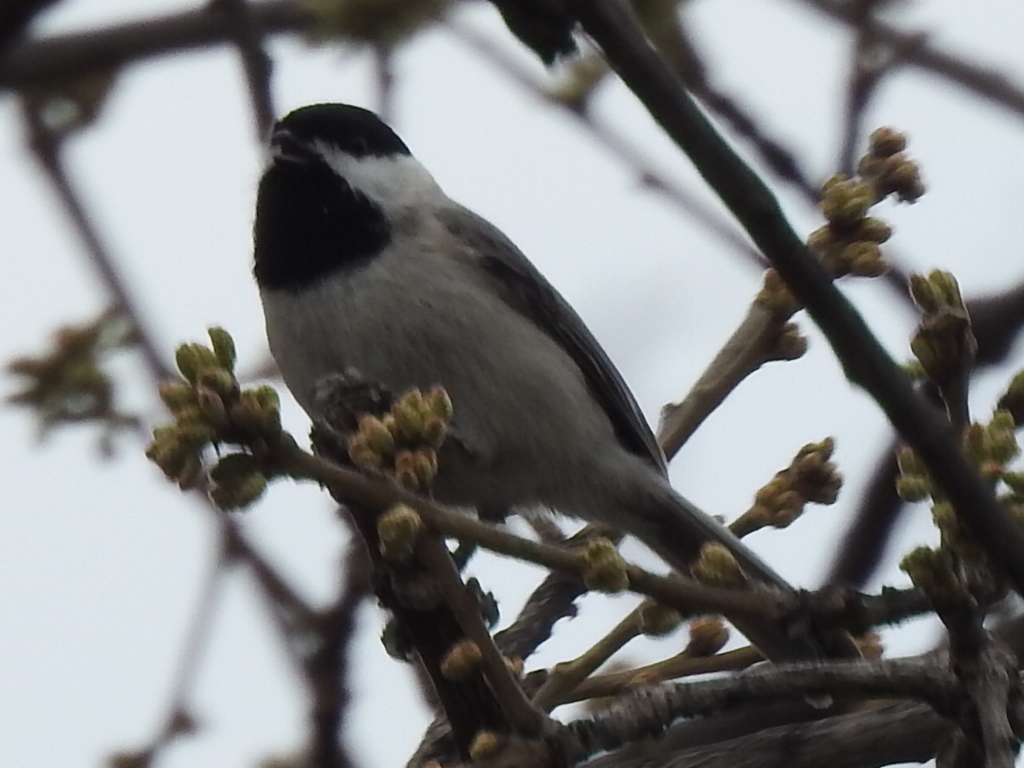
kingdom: Animalia
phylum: Chordata
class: Aves
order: Passeriformes
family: Paridae
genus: Poecile
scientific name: Poecile carolinensis
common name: Carolina chickadee
